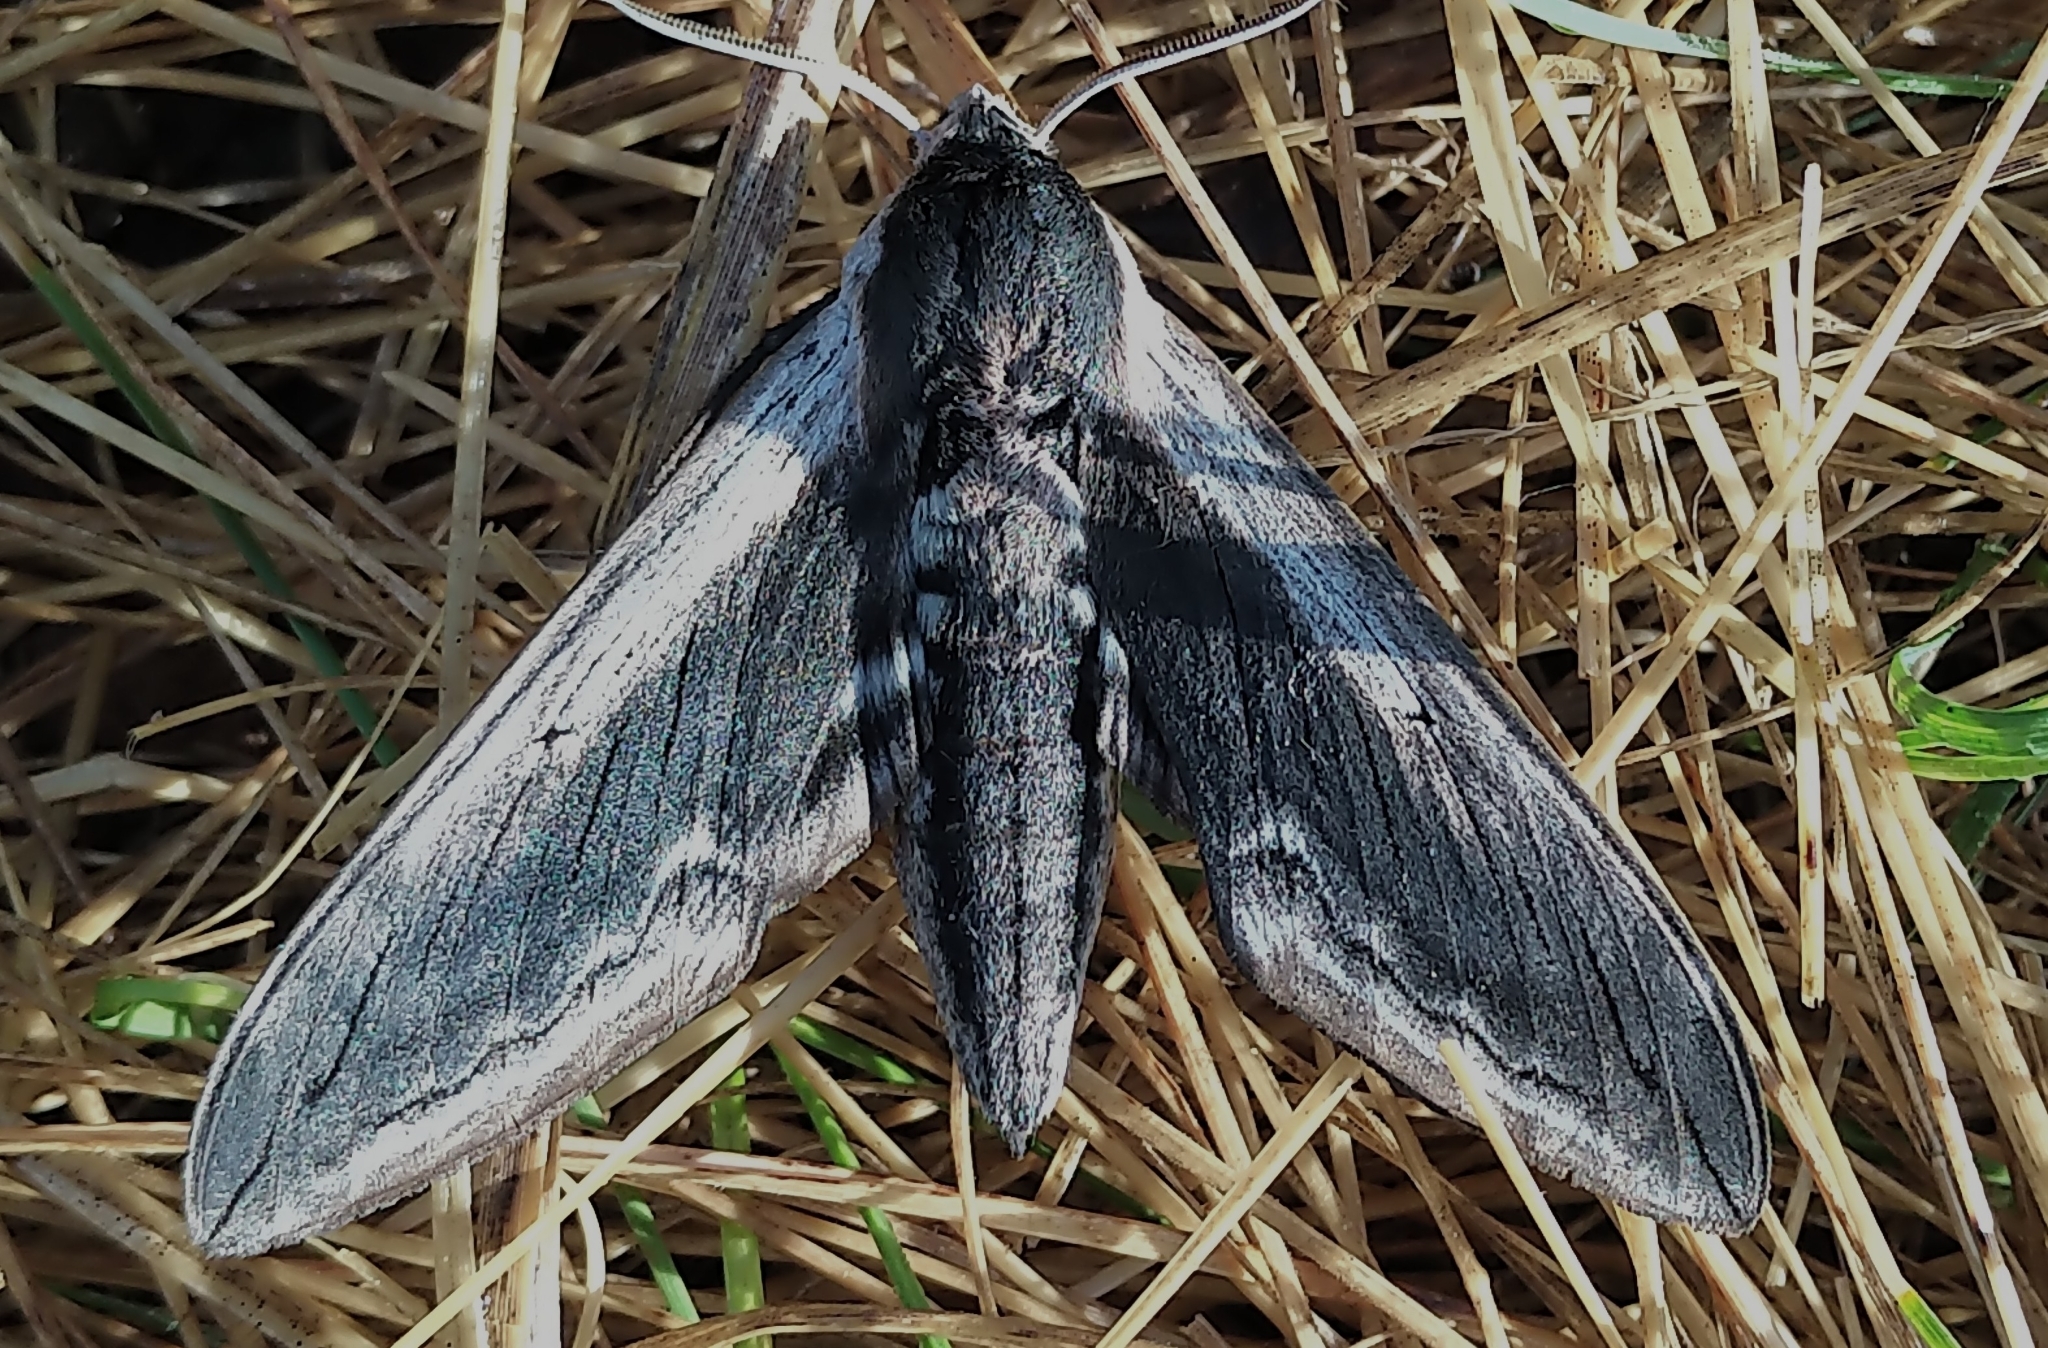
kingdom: Animalia
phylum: Arthropoda
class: Insecta
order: Lepidoptera
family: Sphingidae
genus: Sphinx
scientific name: Sphinx drupiferarum
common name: Wild cherry sphinx
